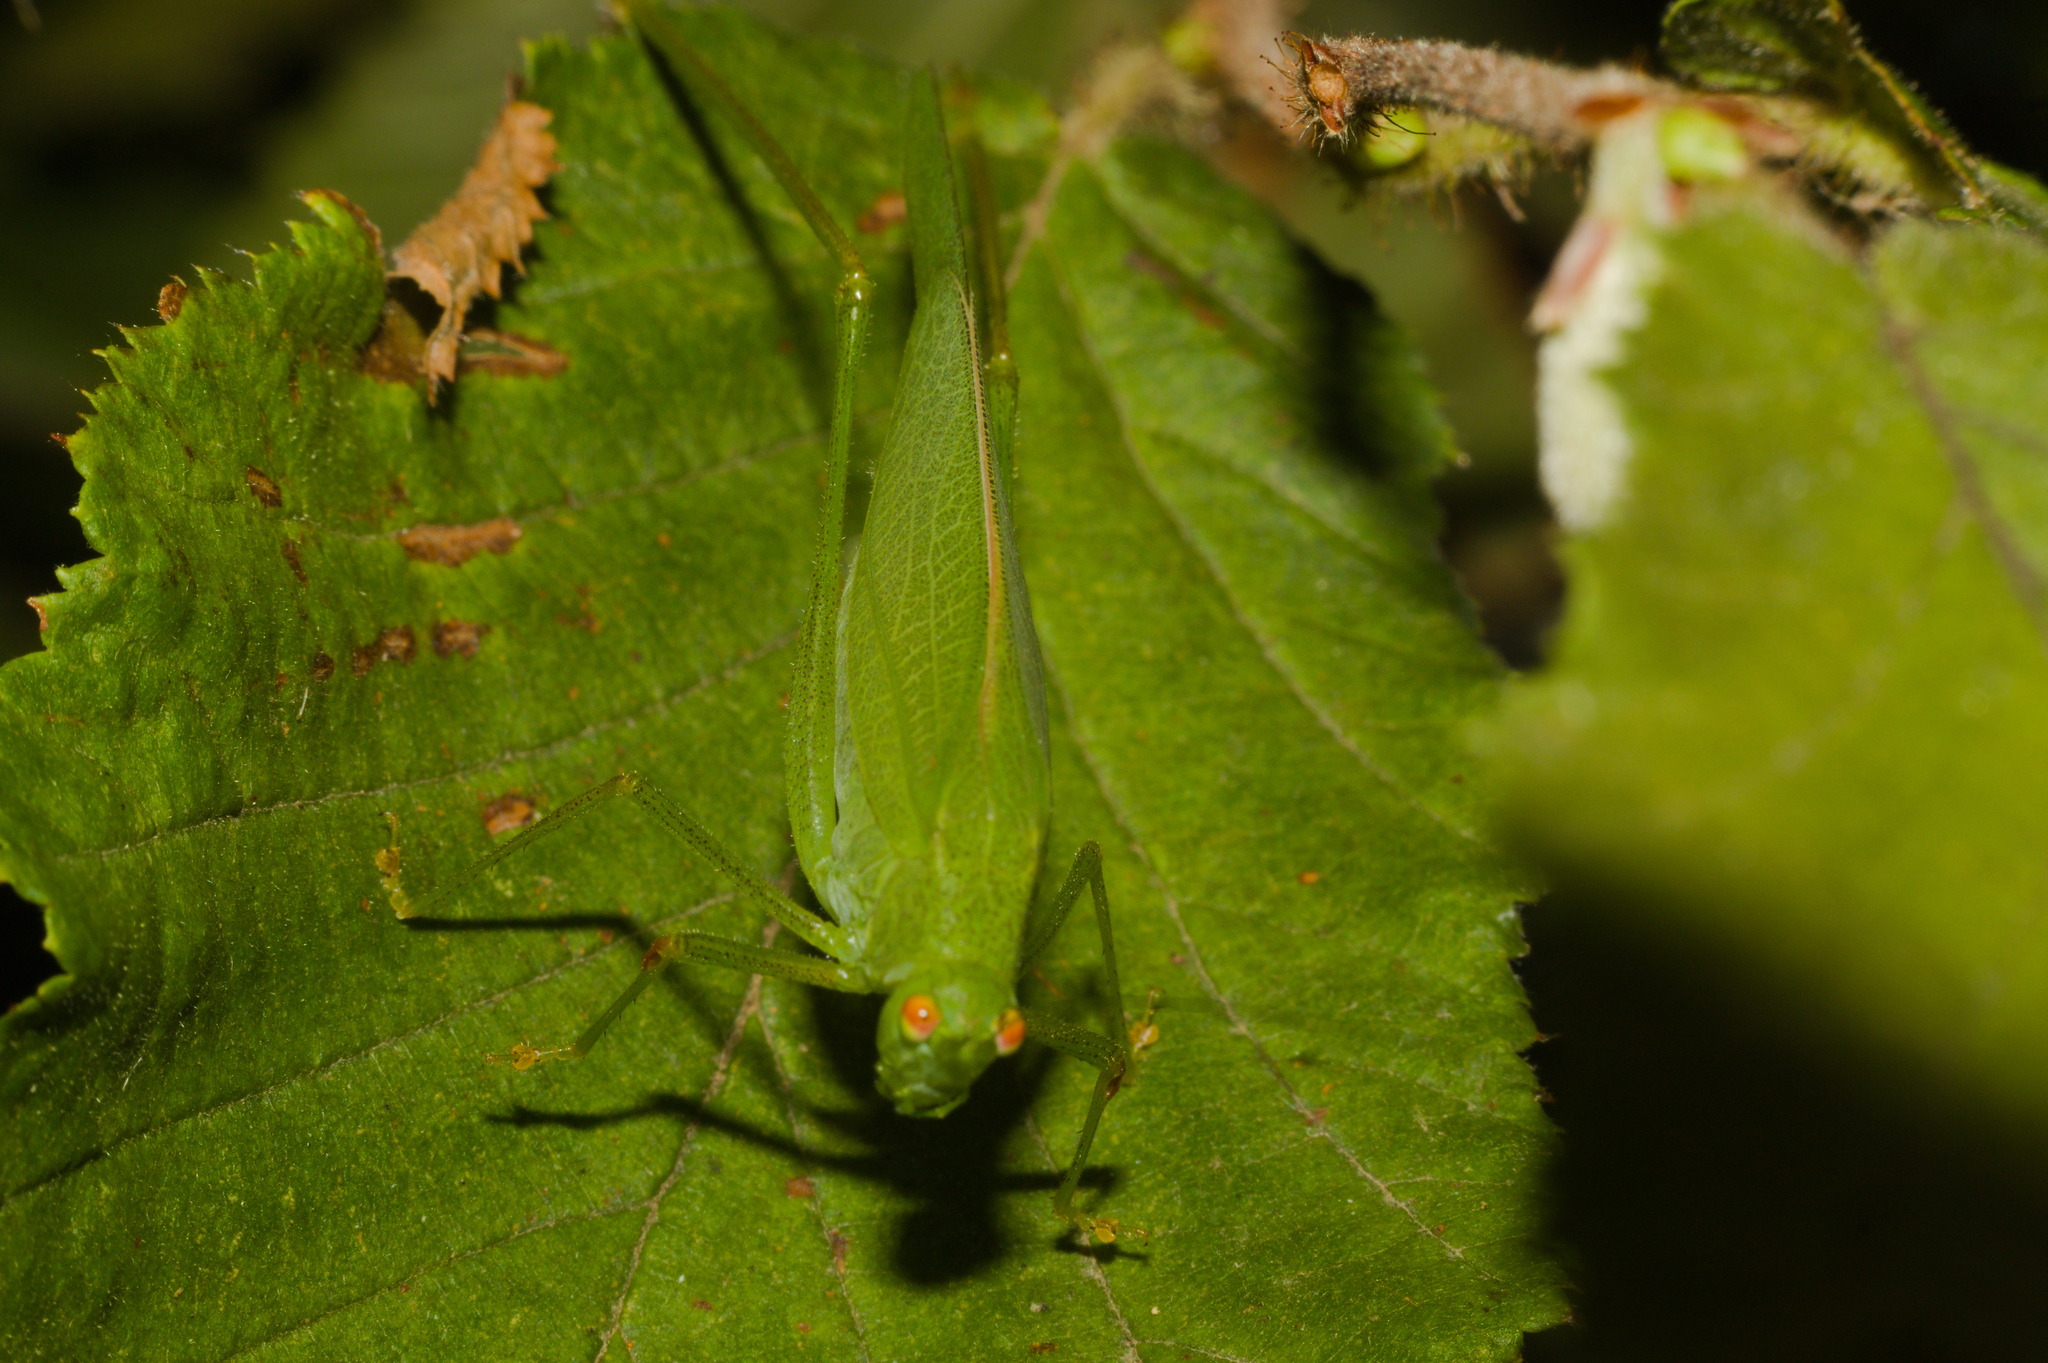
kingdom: Animalia
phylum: Arthropoda
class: Insecta
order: Orthoptera
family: Tettigoniidae
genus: Phaneroptera
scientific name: Phaneroptera nana
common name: Southern sickle bush-cricket
